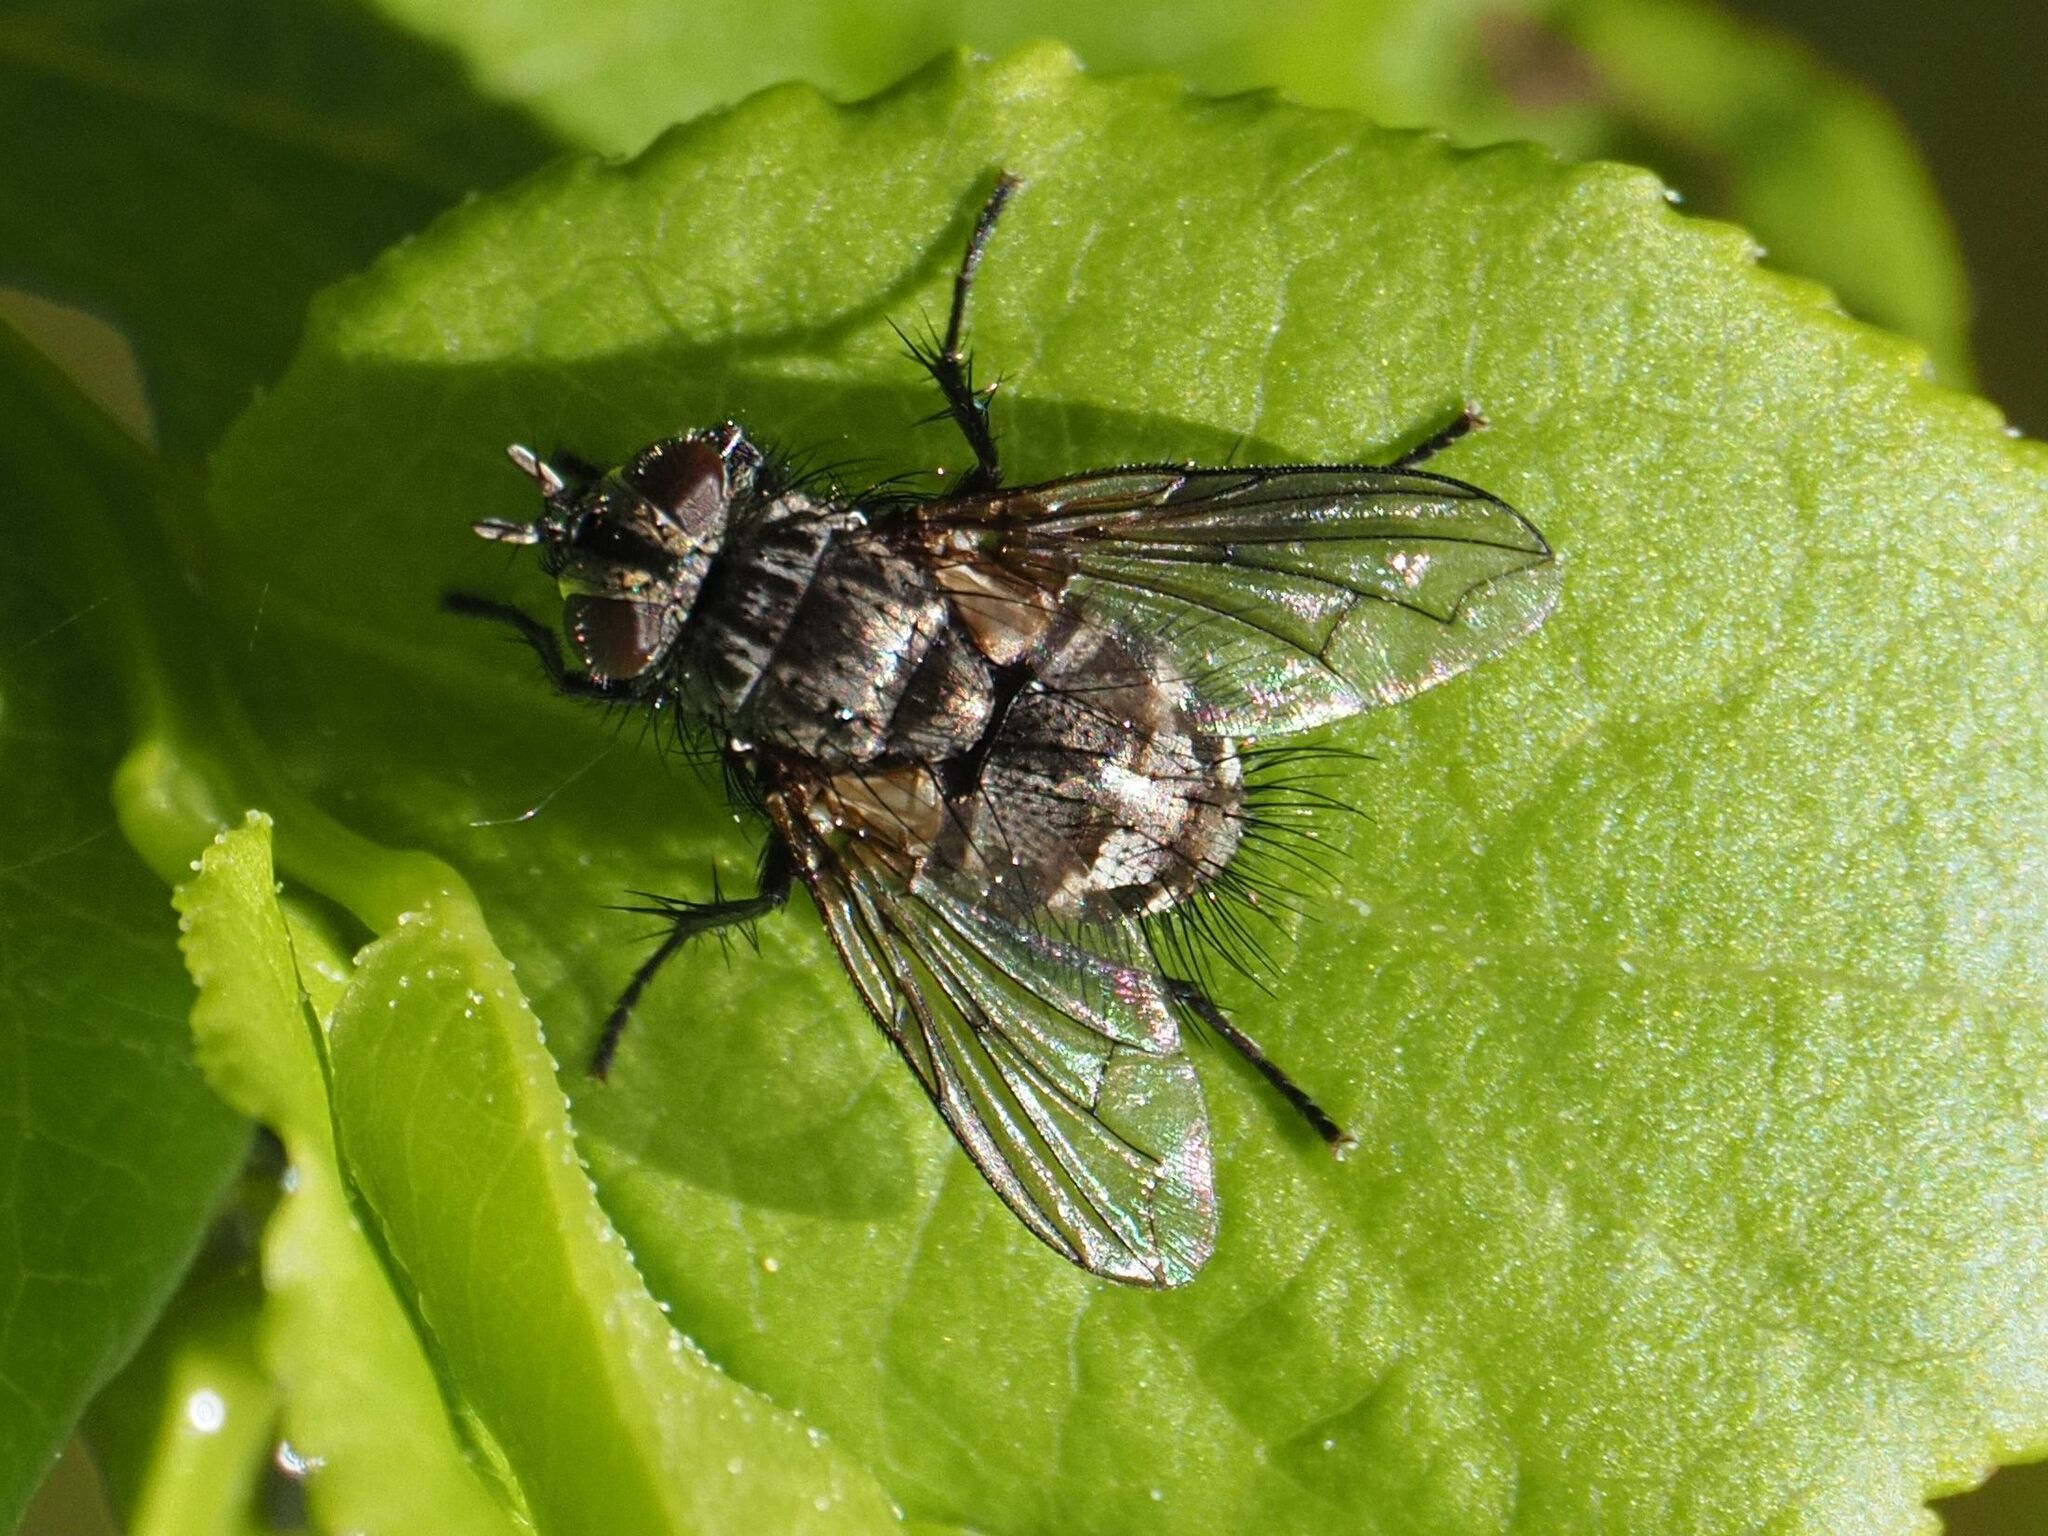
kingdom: Animalia
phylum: Arthropoda
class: Insecta
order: Diptera
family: Tachinidae
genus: Lypha
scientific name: Lypha dubia
